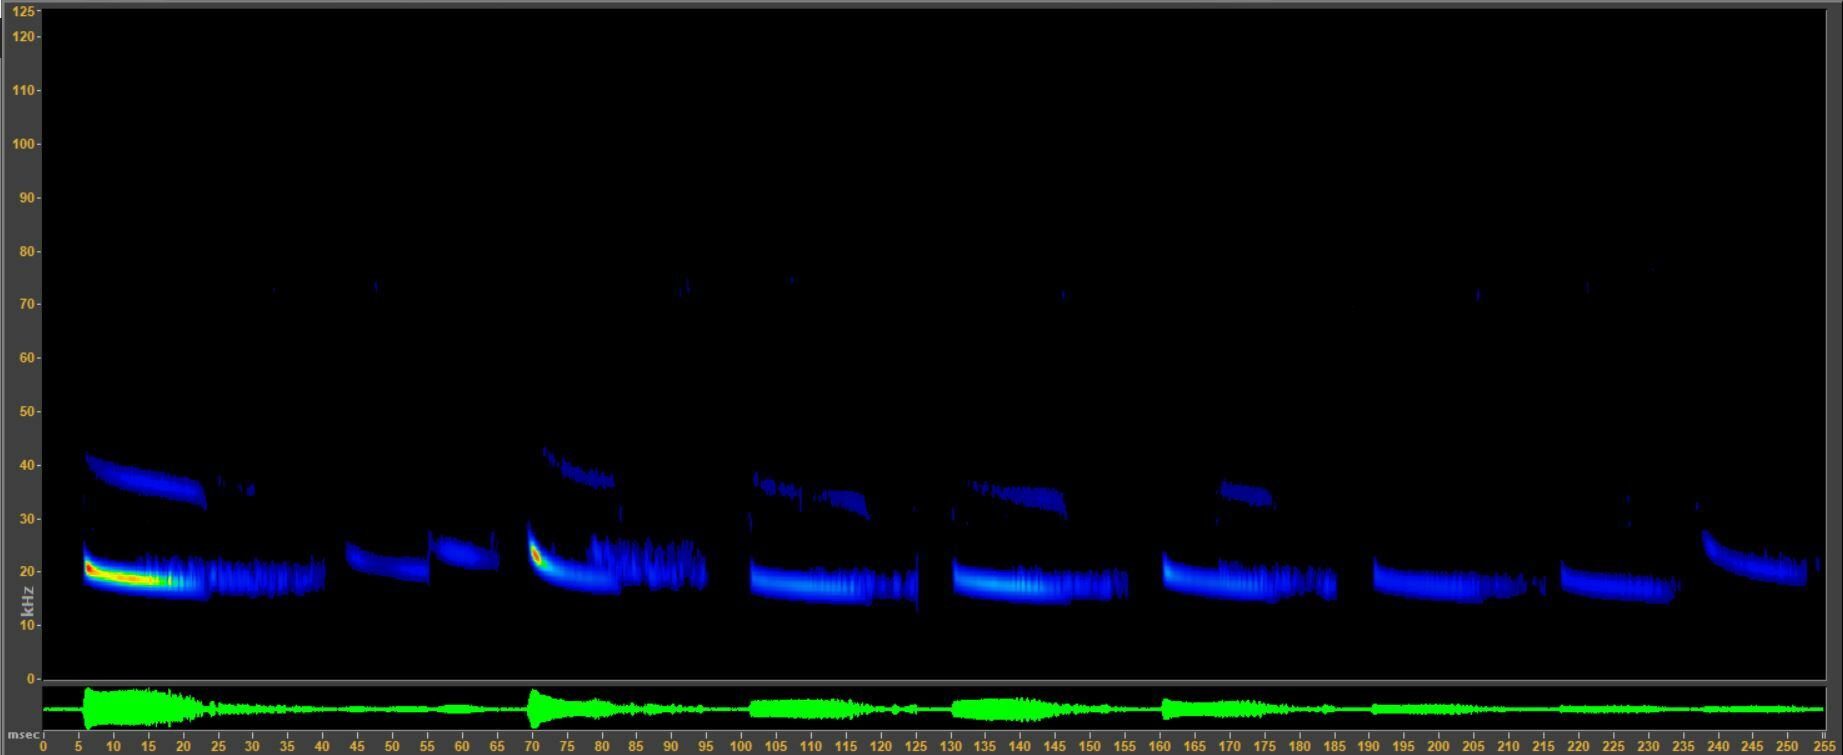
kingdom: Animalia
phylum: Chordata
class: Mammalia
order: Chiroptera
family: Vespertilionidae
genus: Aeorestes
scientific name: Aeorestes cinereus
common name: North american hoary bat
